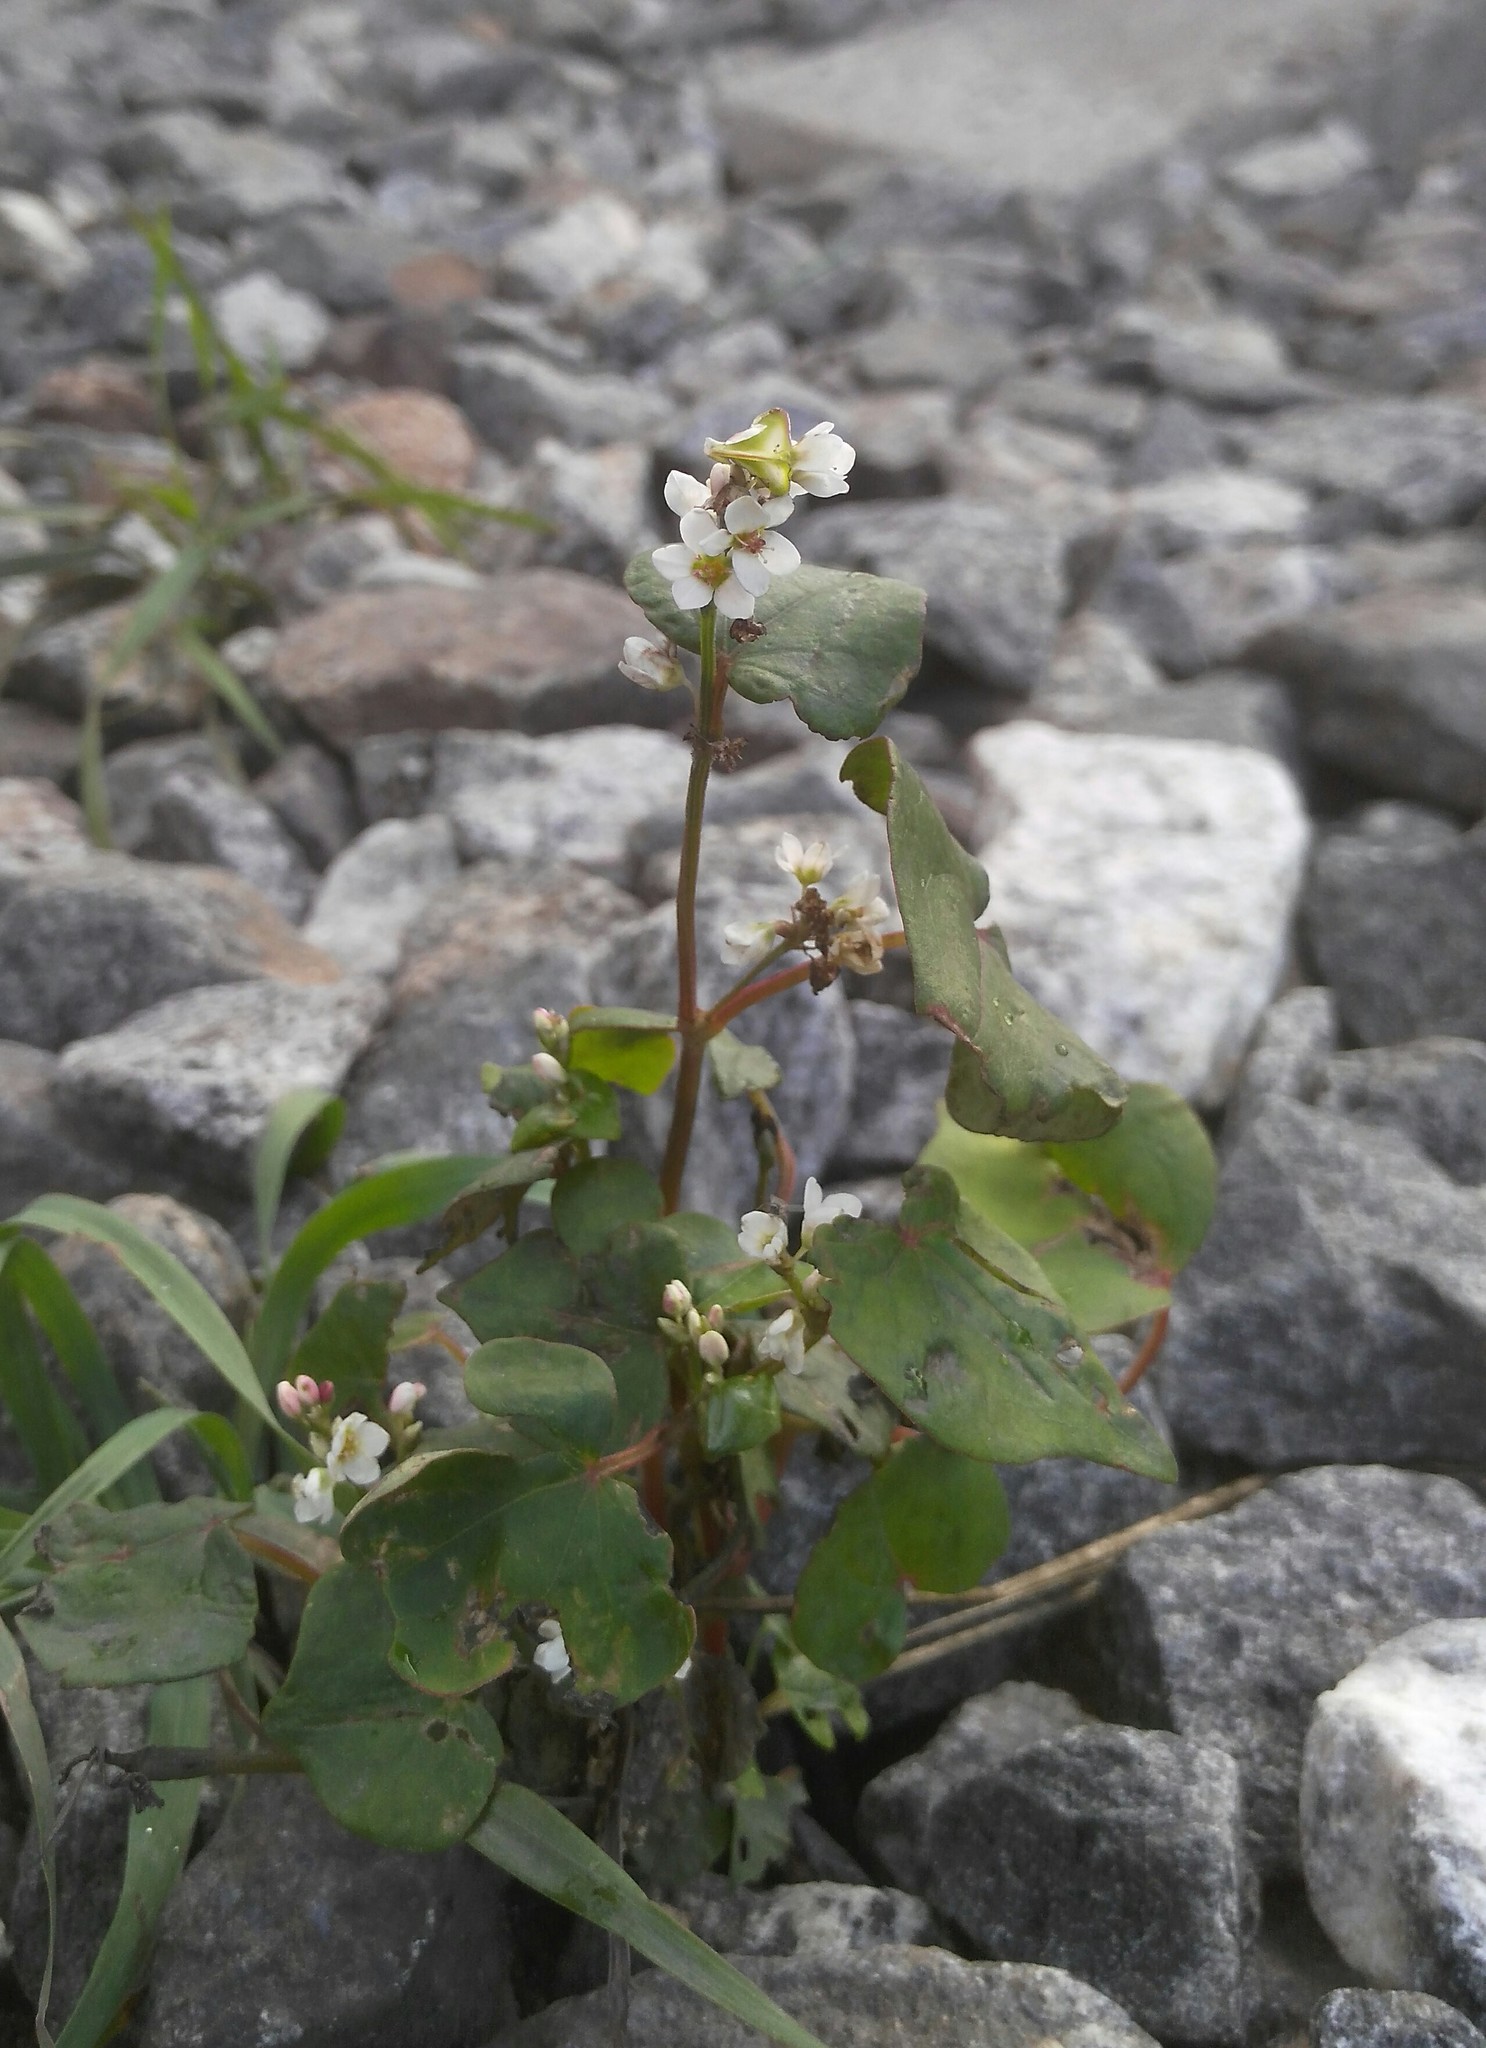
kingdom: Plantae
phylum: Tracheophyta
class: Magnoliopsida
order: Caryophyllales
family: Polygonaceae
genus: Fagopyrum
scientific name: Fagopyrum esculentum
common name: Buckwheat
